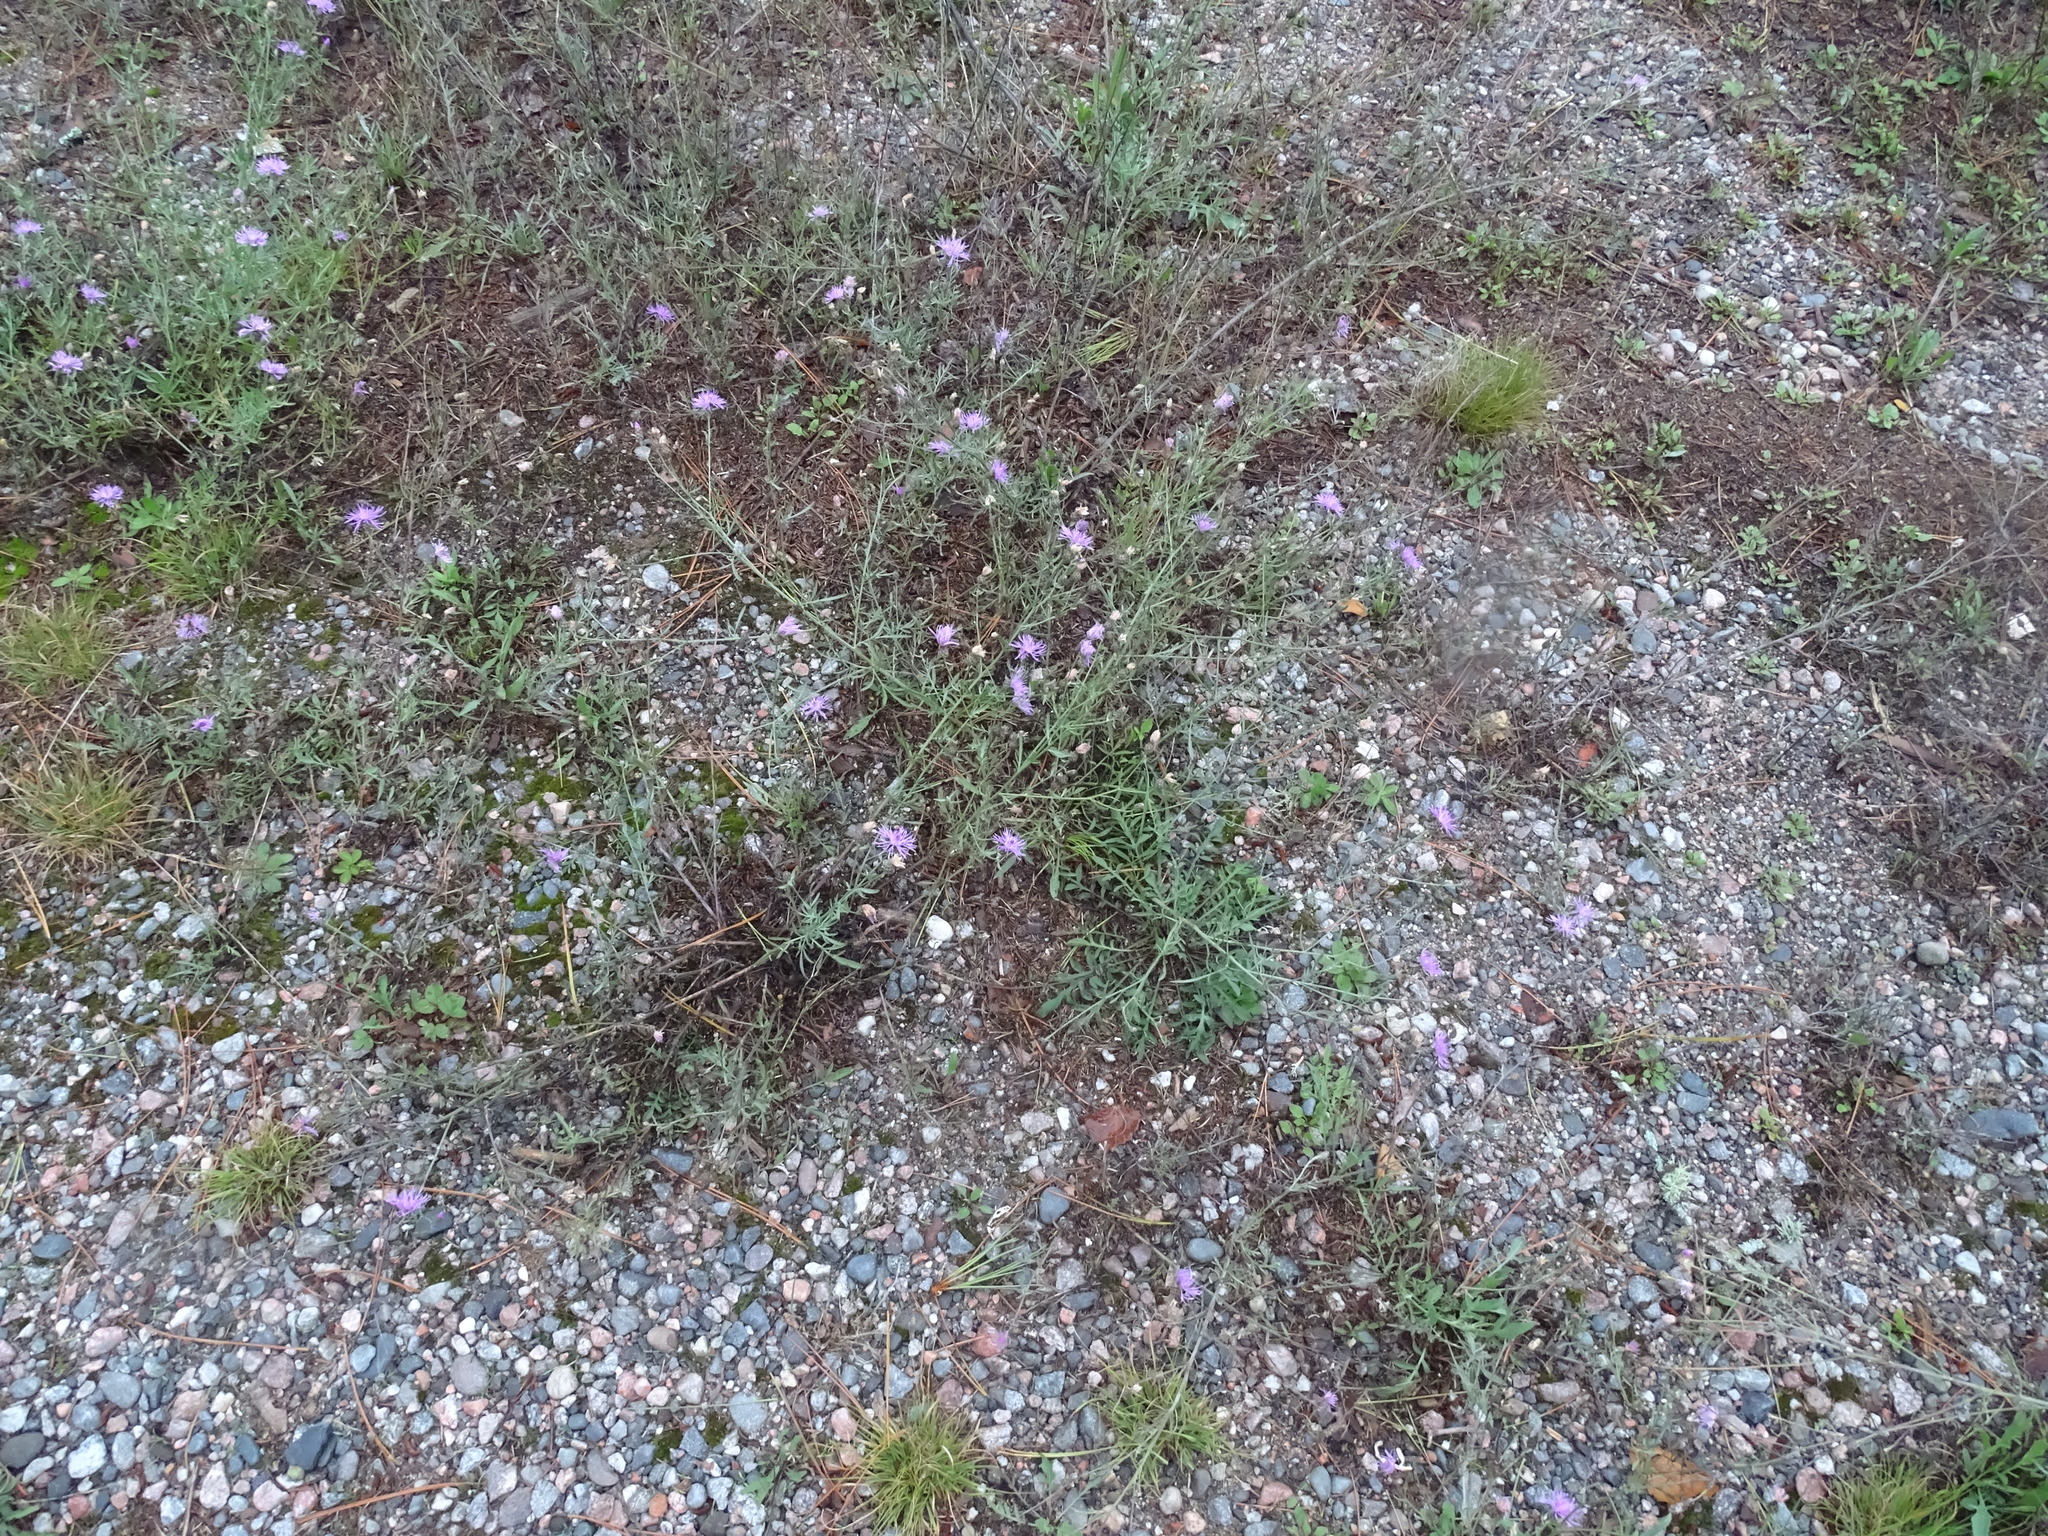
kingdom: Plantae
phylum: Tracheophyta
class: Magnoliopsida
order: Asterales
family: Asteraceae
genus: Centaurea
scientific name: Centaurea stoebe
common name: Spotted knapweed
